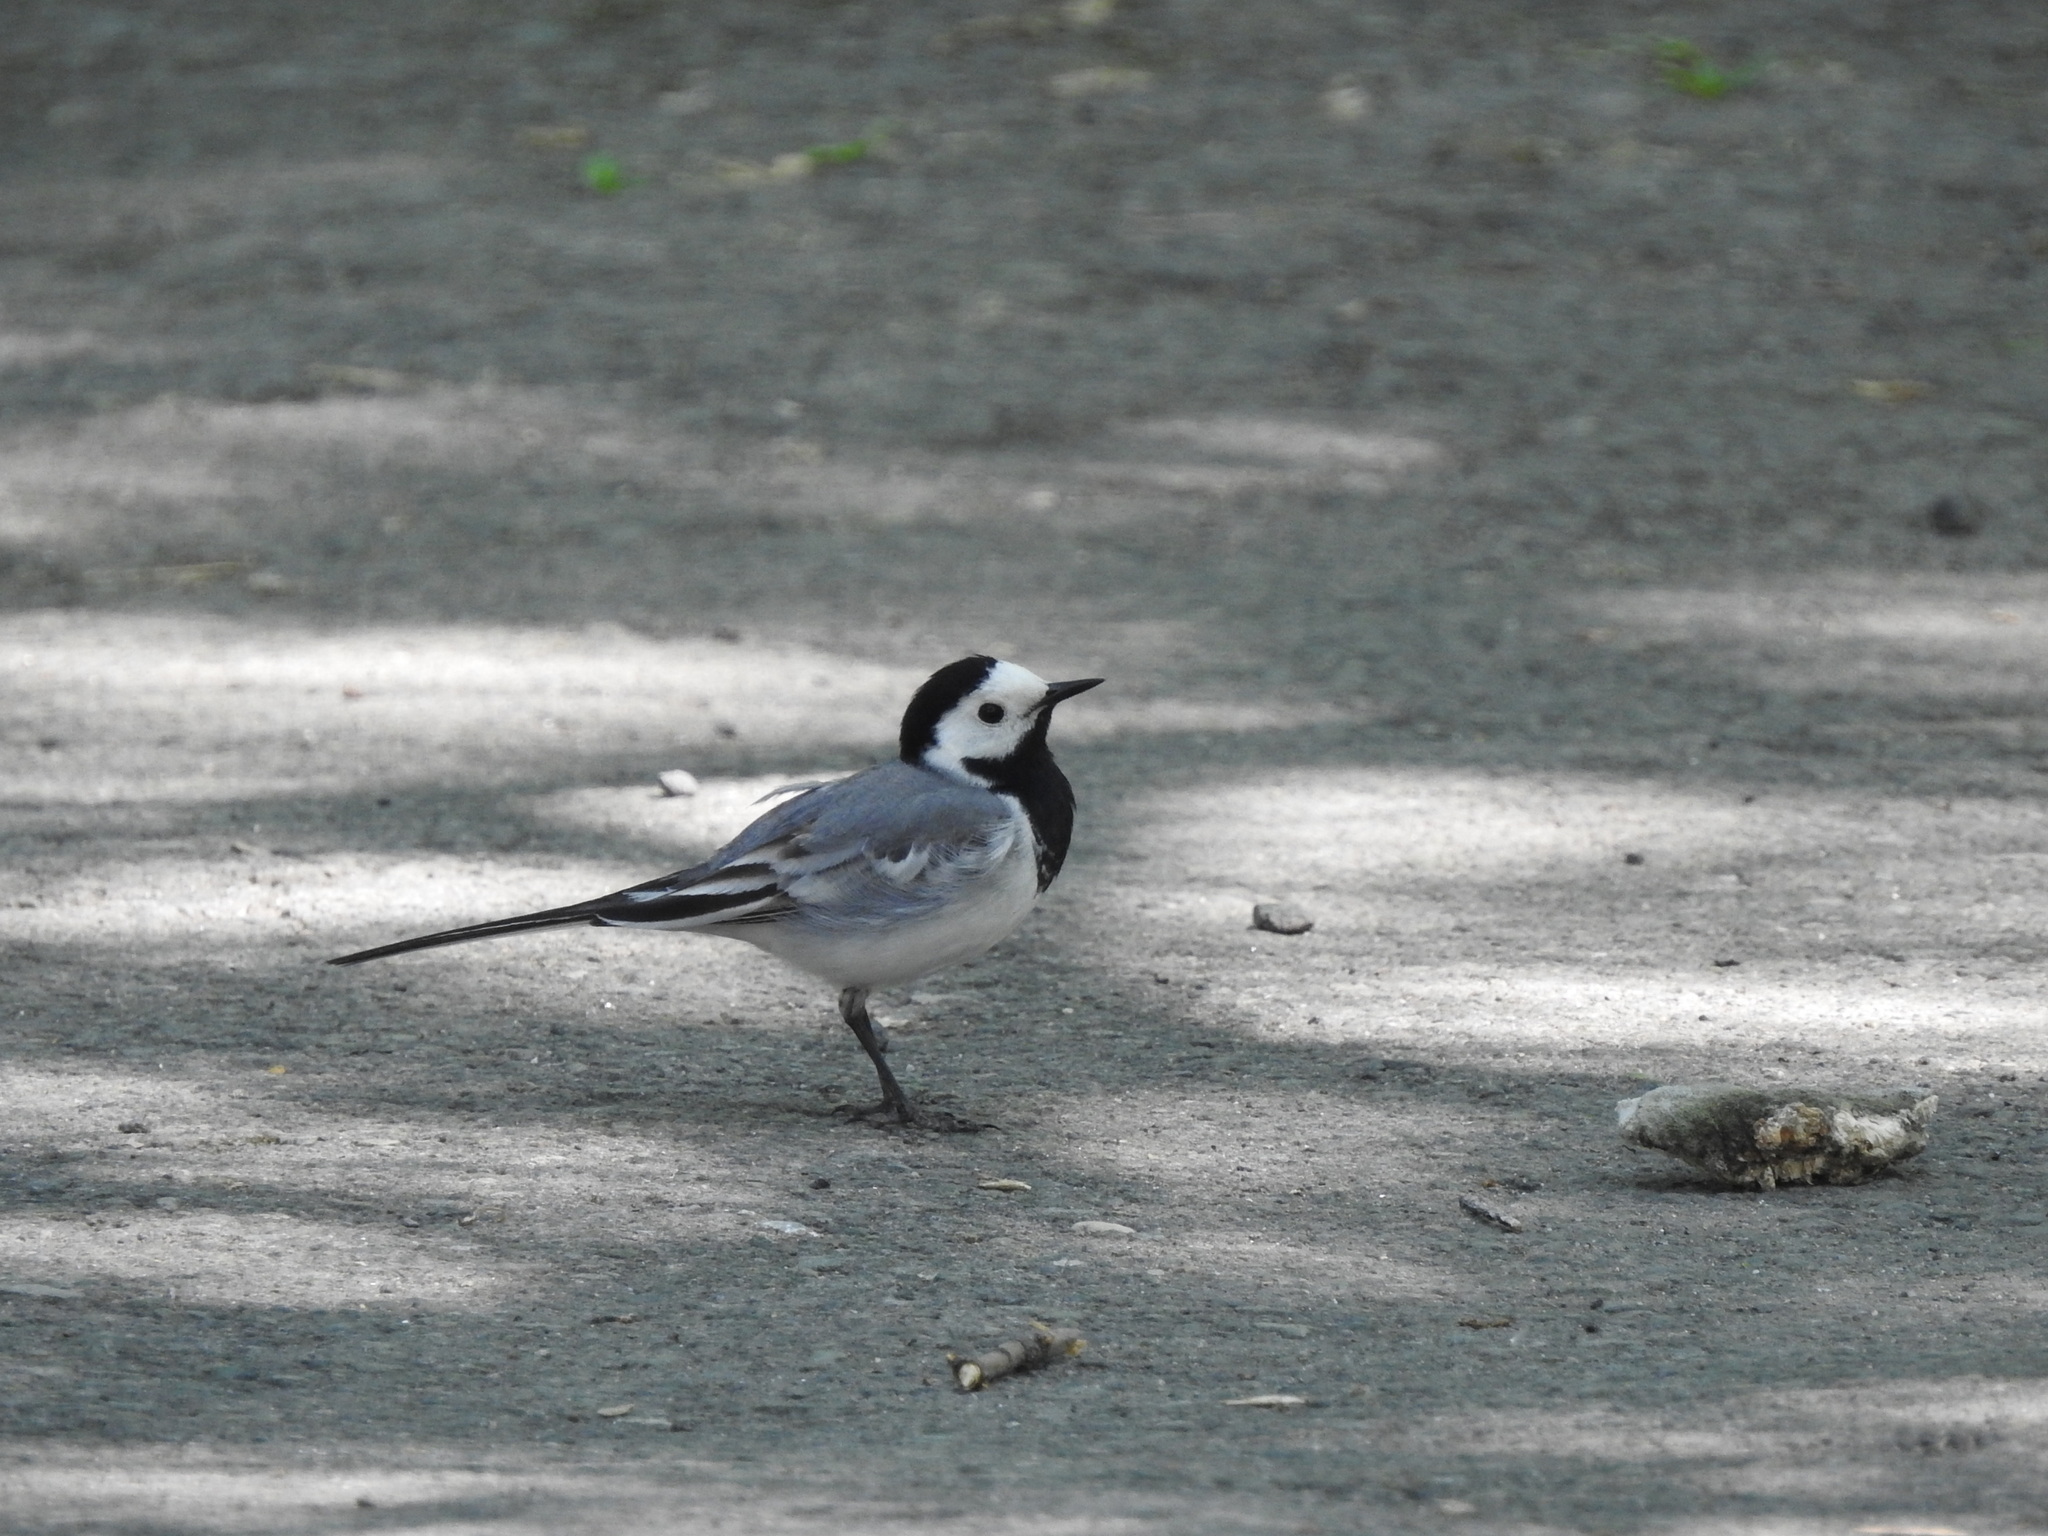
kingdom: Animalia
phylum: Chordata
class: Aves
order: Passeriformes
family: Motacillidae
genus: Motacilla
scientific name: Motacilla alba
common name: White wagtail
